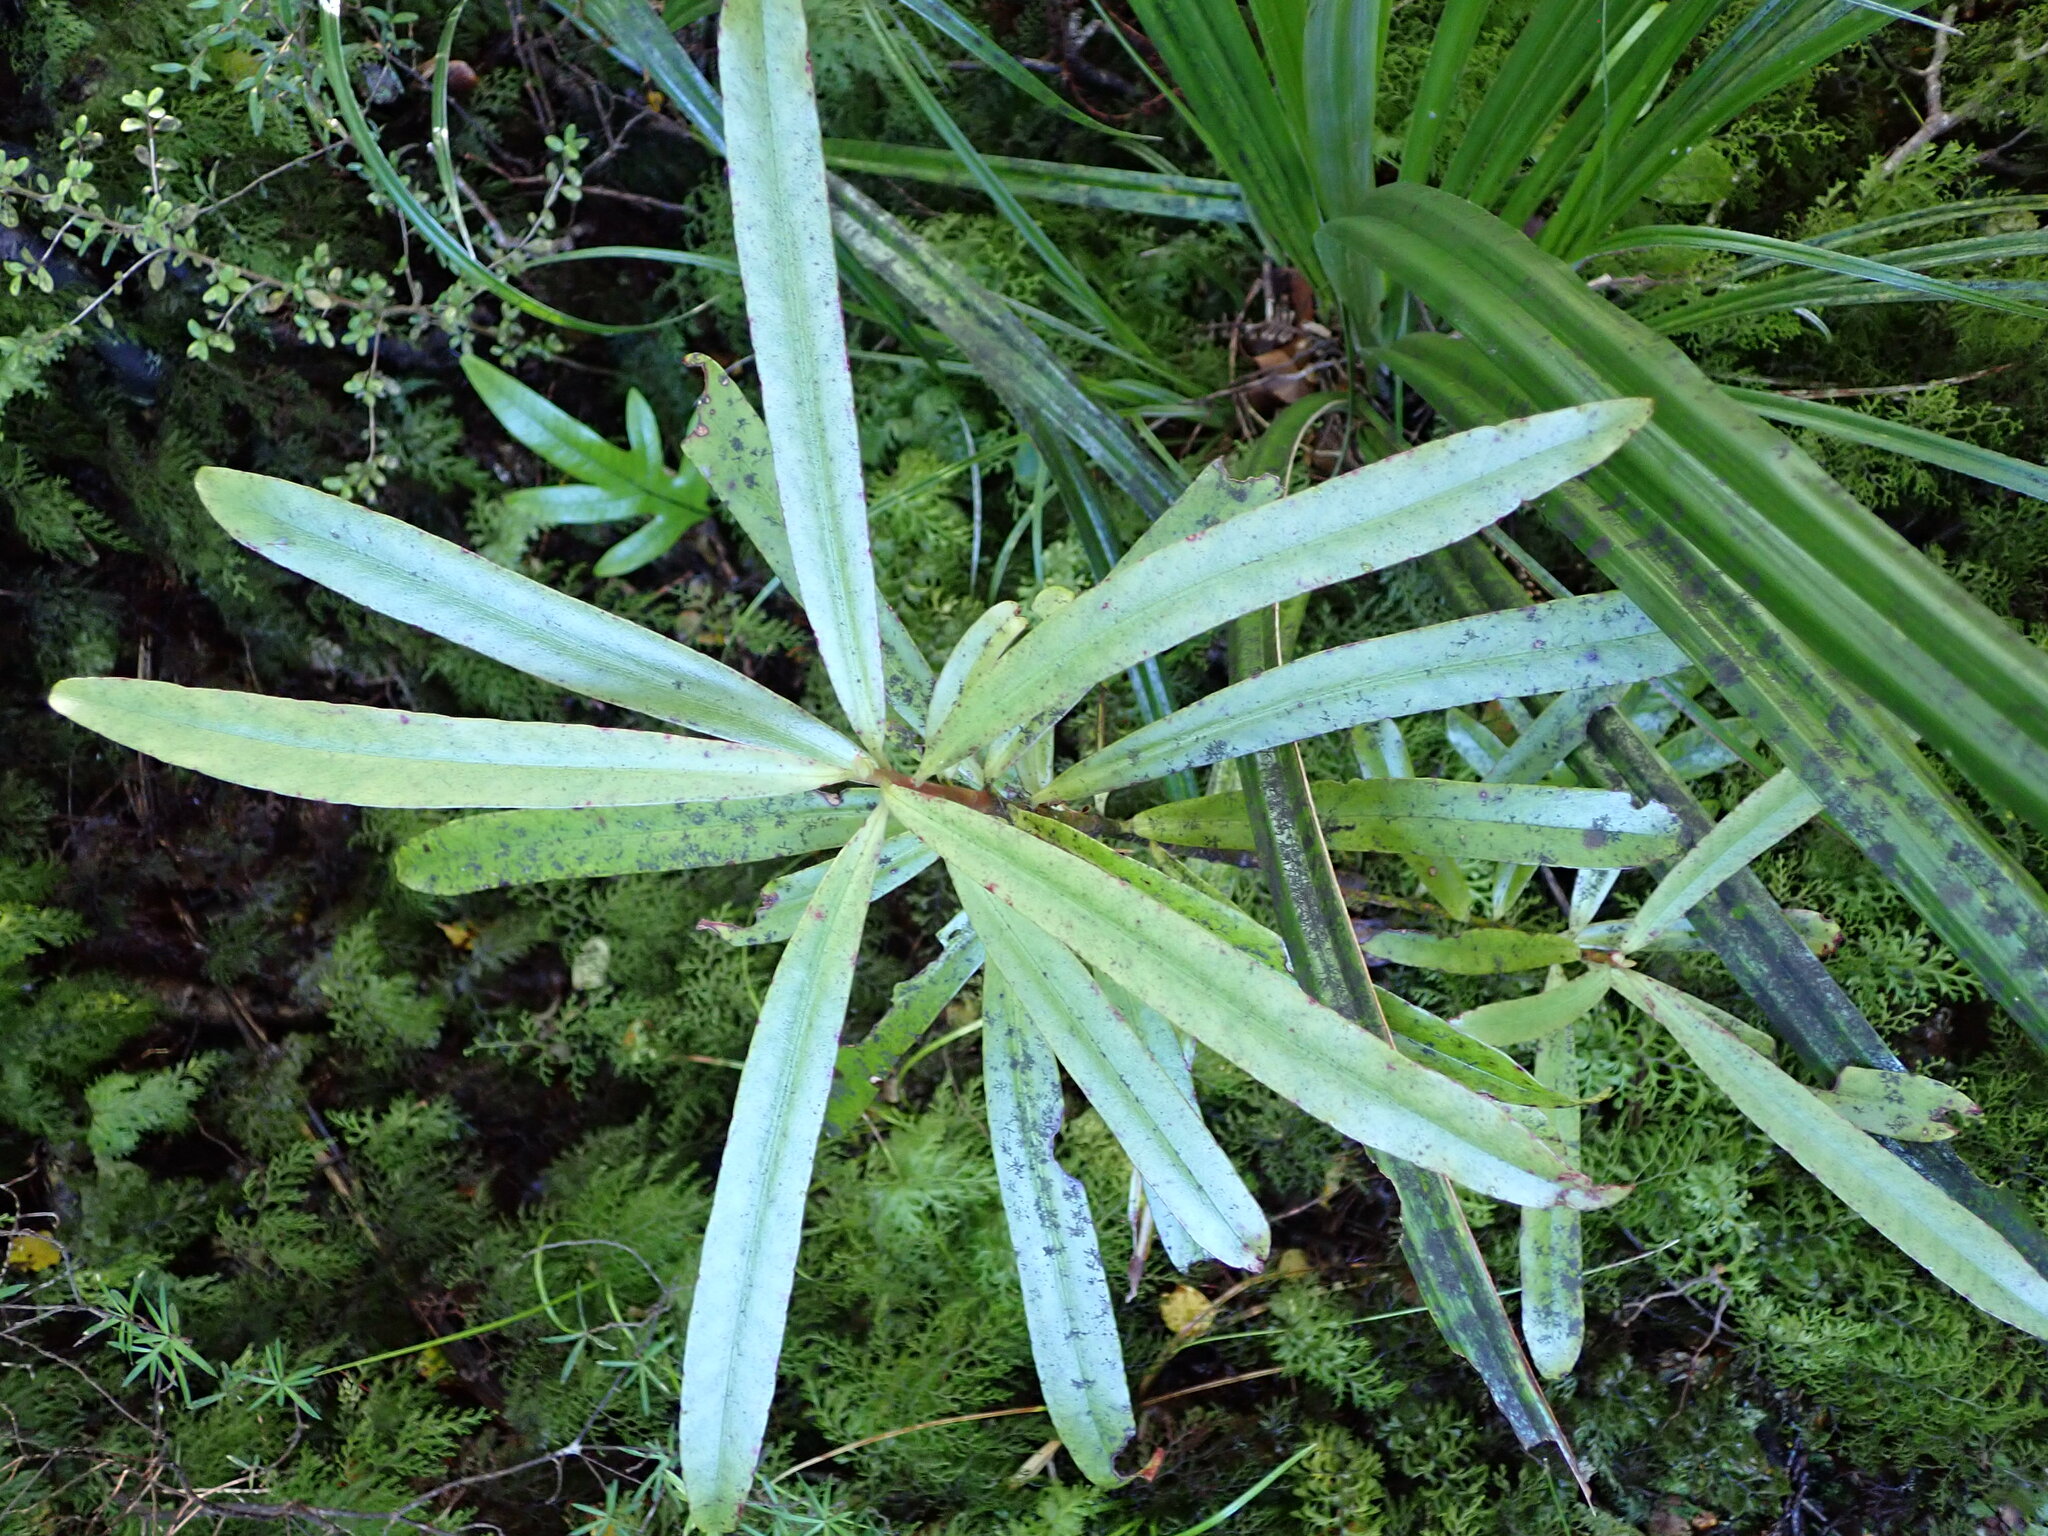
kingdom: Plantae
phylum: Tracheophyta
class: Magnoliopsida
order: Ericales
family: Primulaceae
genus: Myrsine
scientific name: Myrsine salicina
